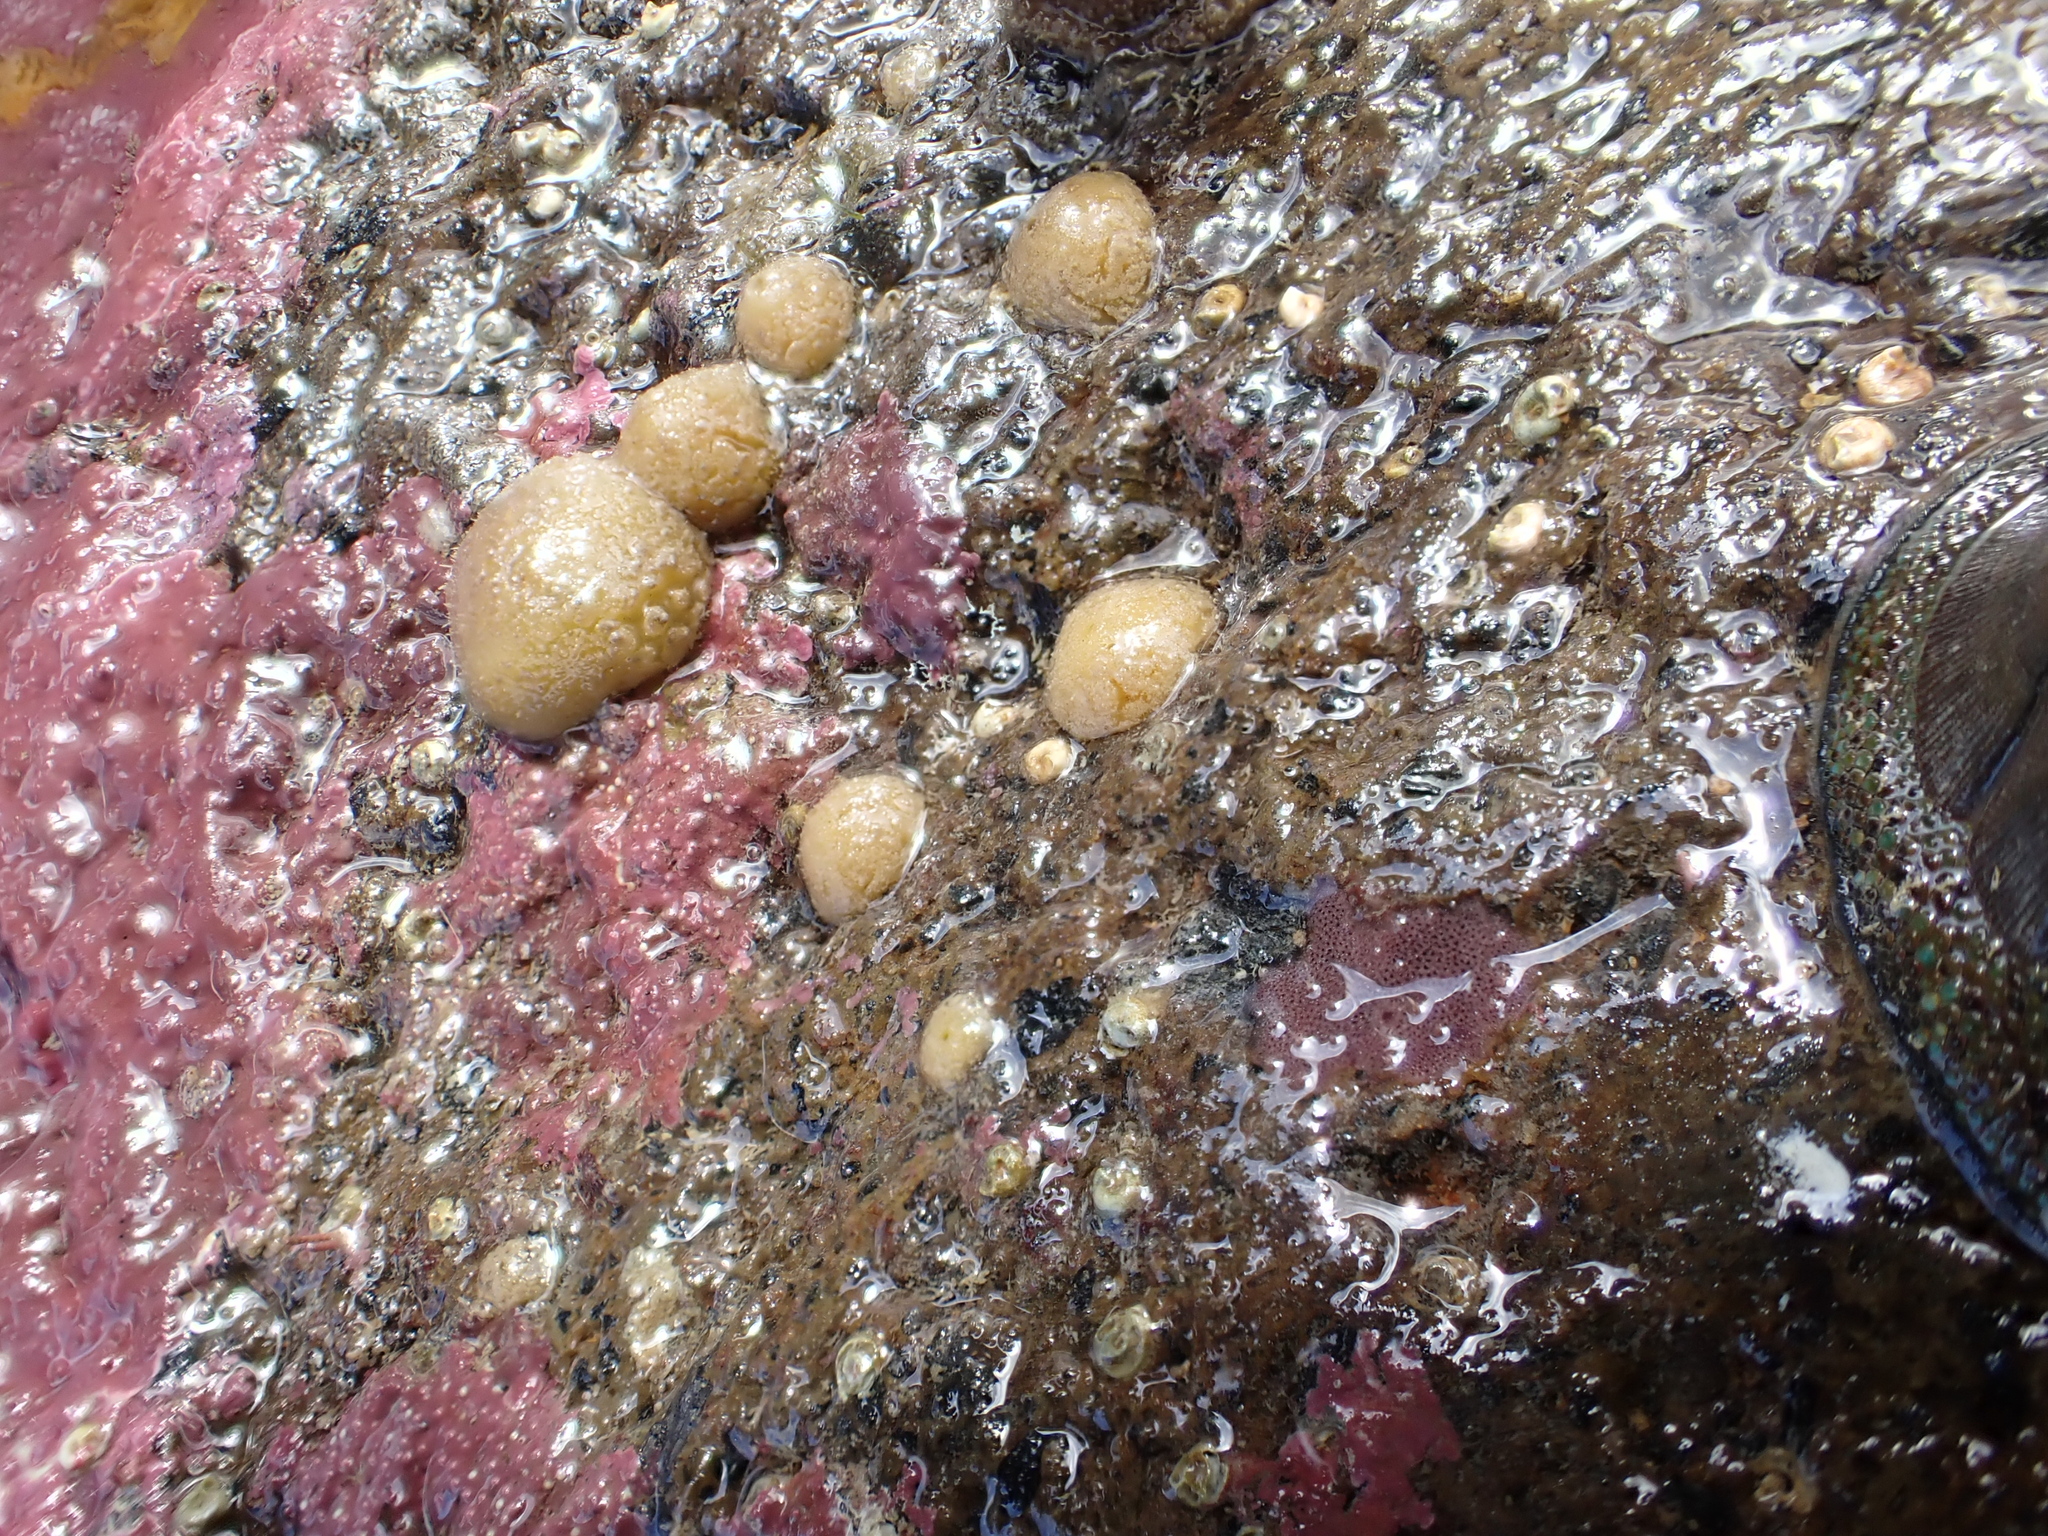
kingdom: Animalia
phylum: Porifera
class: Demospongiae
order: Tethyida
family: Tethyidae
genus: Tethya
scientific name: Tethya stolonifera
